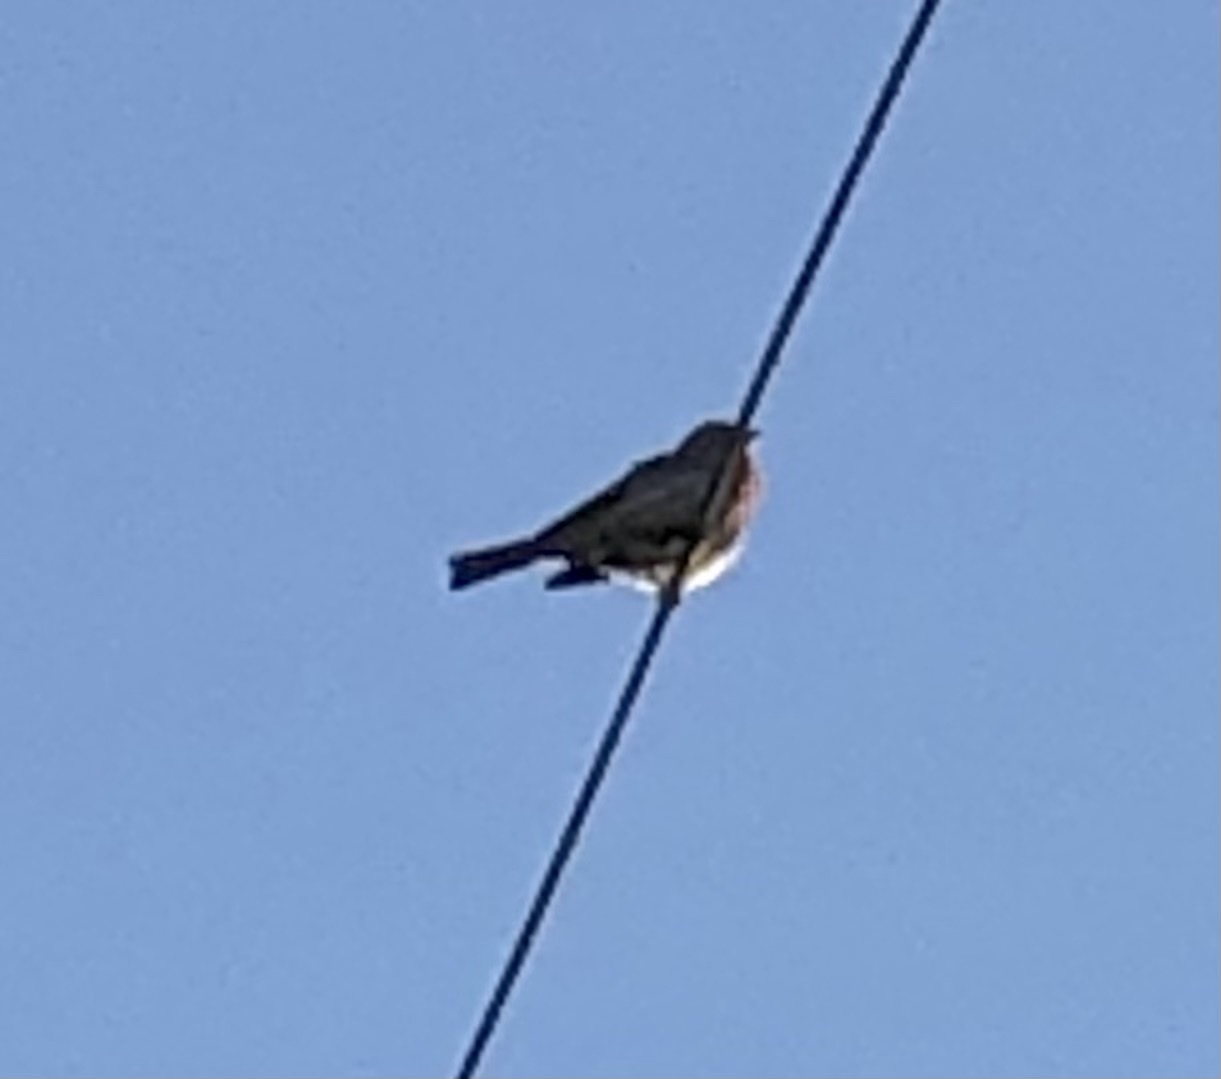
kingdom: Animalia
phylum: Chordata
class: Aves
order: Passeriformes
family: Fringillidae
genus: Haemorhous
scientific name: Haemorhous mexicanus
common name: House finch
